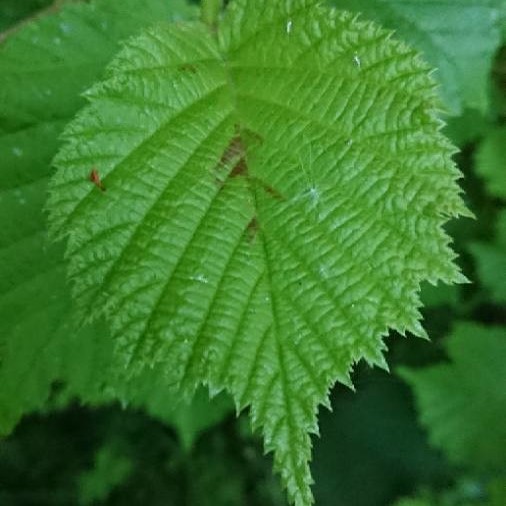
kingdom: Plantae
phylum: Tracheophyta
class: Magnoliopsida
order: Fagales
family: Betulaceae
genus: Corylus
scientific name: Corylus avellana
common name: European hazel
